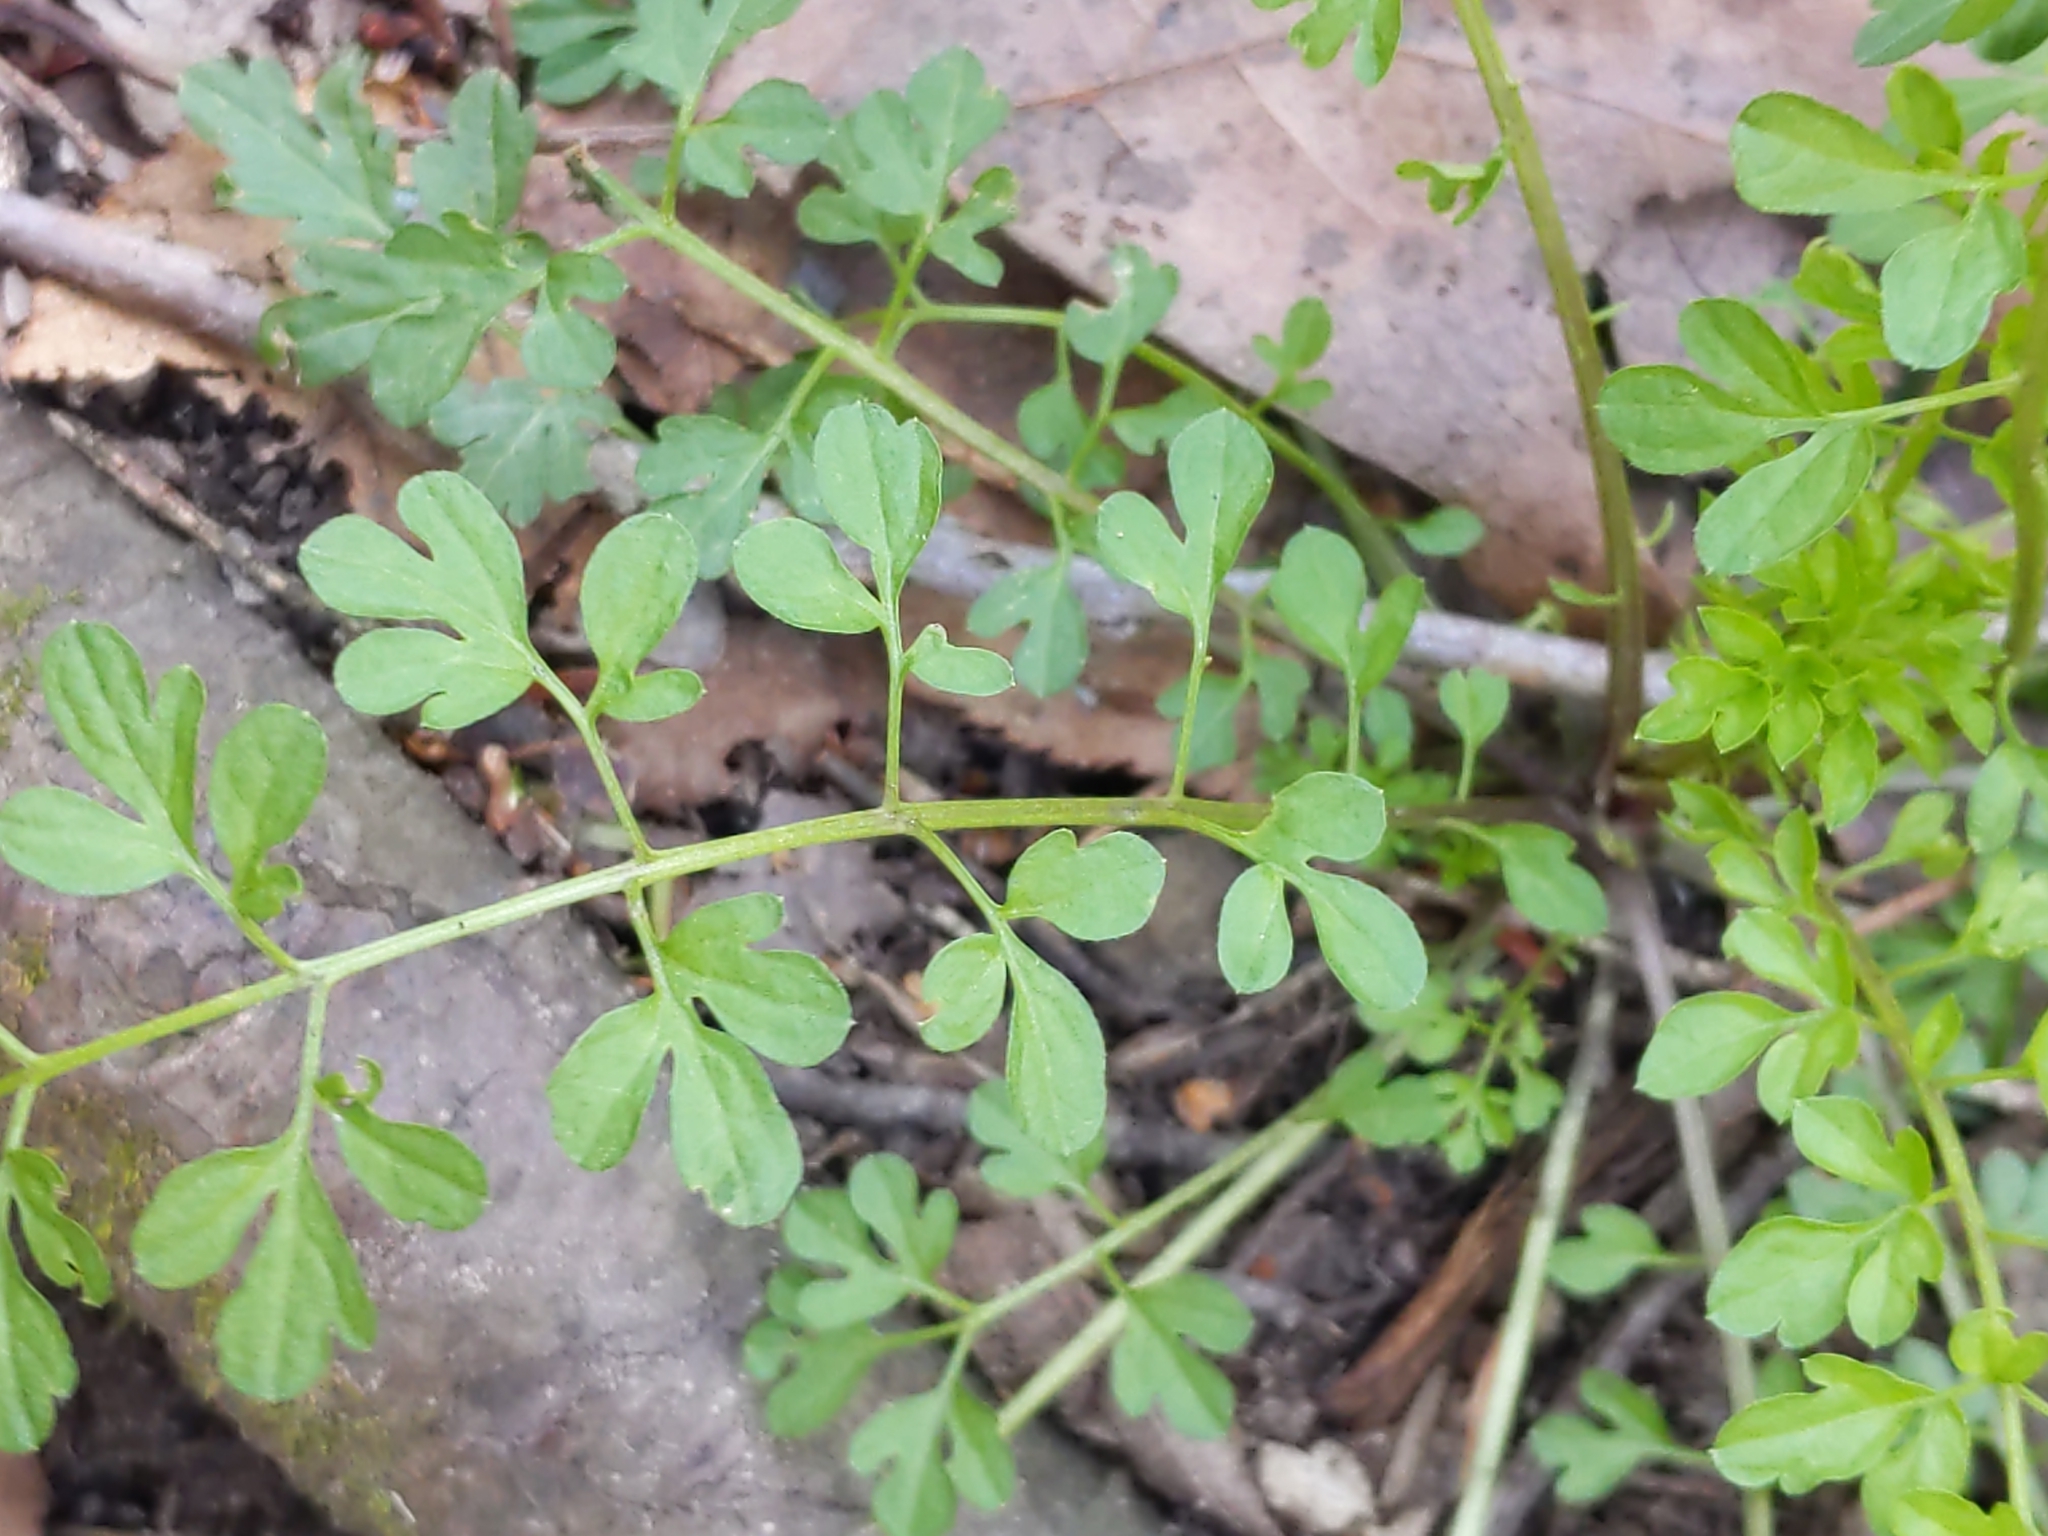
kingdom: Plantae
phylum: Tracheophyta
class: Magnoliopsida
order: Brassicales
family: Brassicaceae
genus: Cardamine
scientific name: Cardamine impatiens
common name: Narrow-leaved bitter-cress
